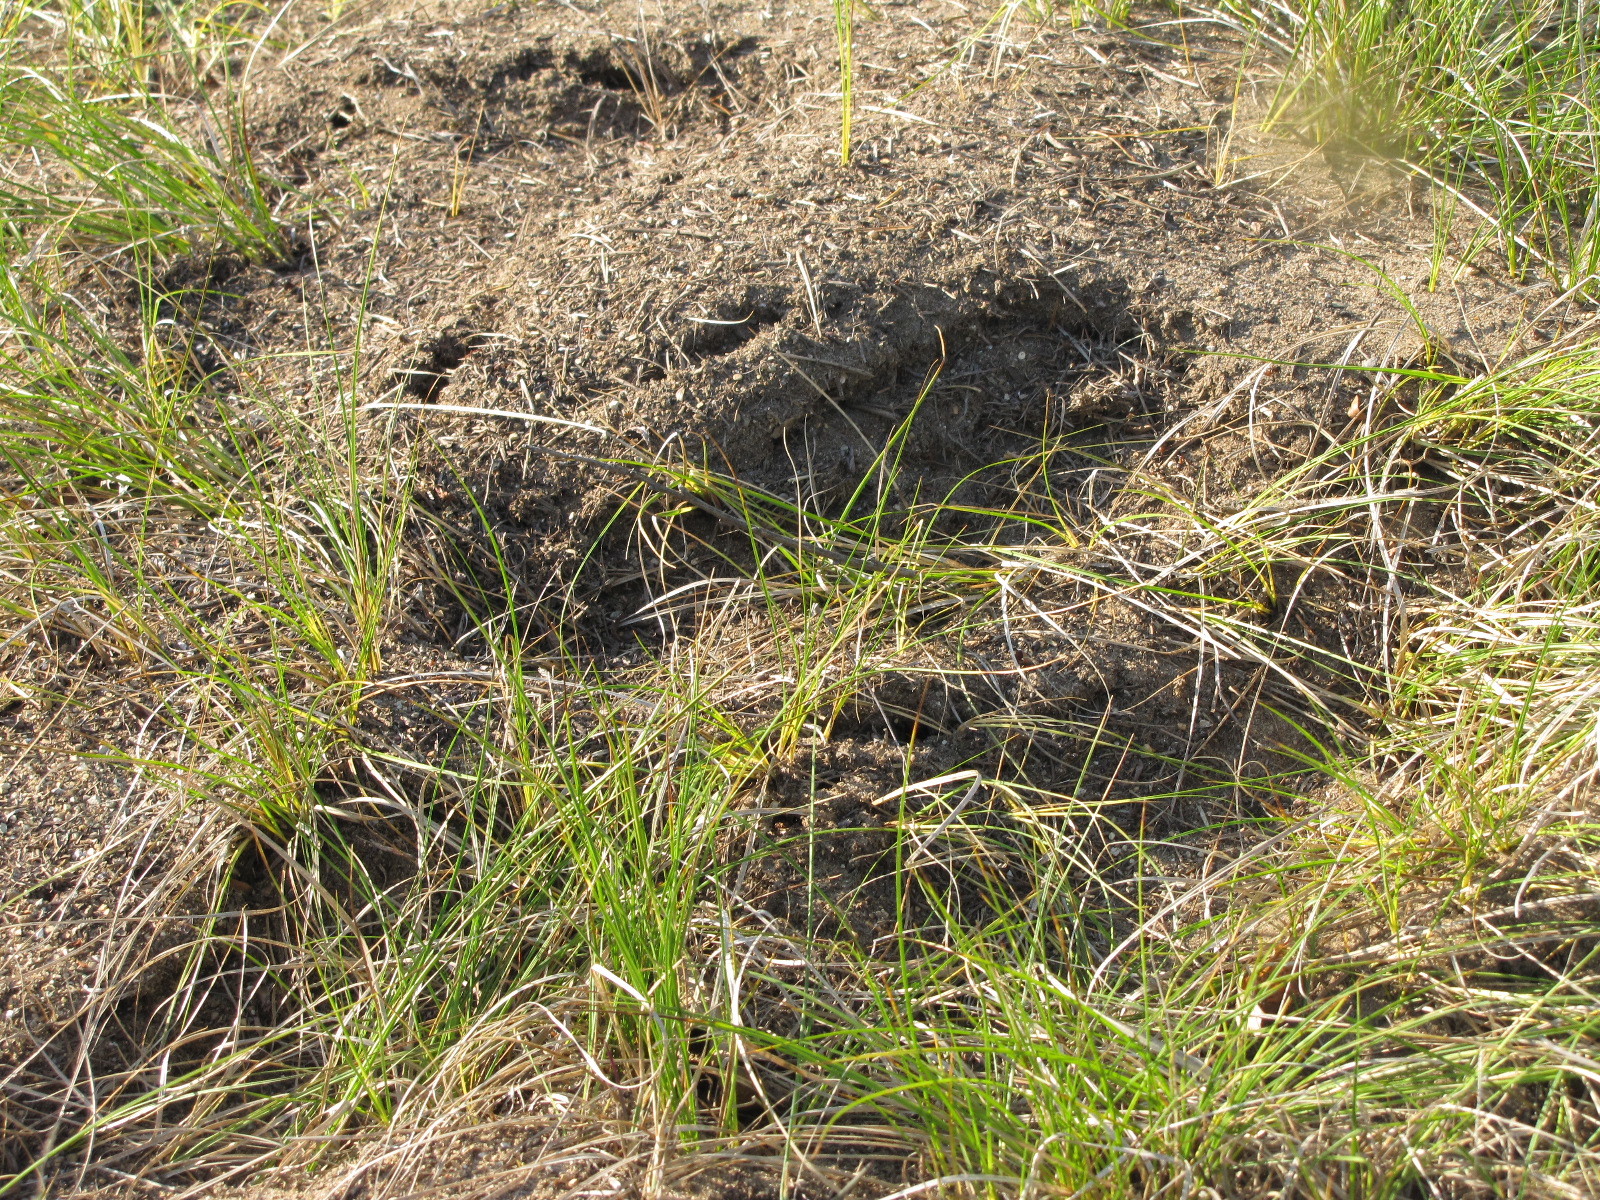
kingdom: Animalia
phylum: Arthropoda
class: Insecta
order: Hymenoptera
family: Formicidae
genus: Formica
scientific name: Formica exsectoides
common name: Allegheny mound ant
